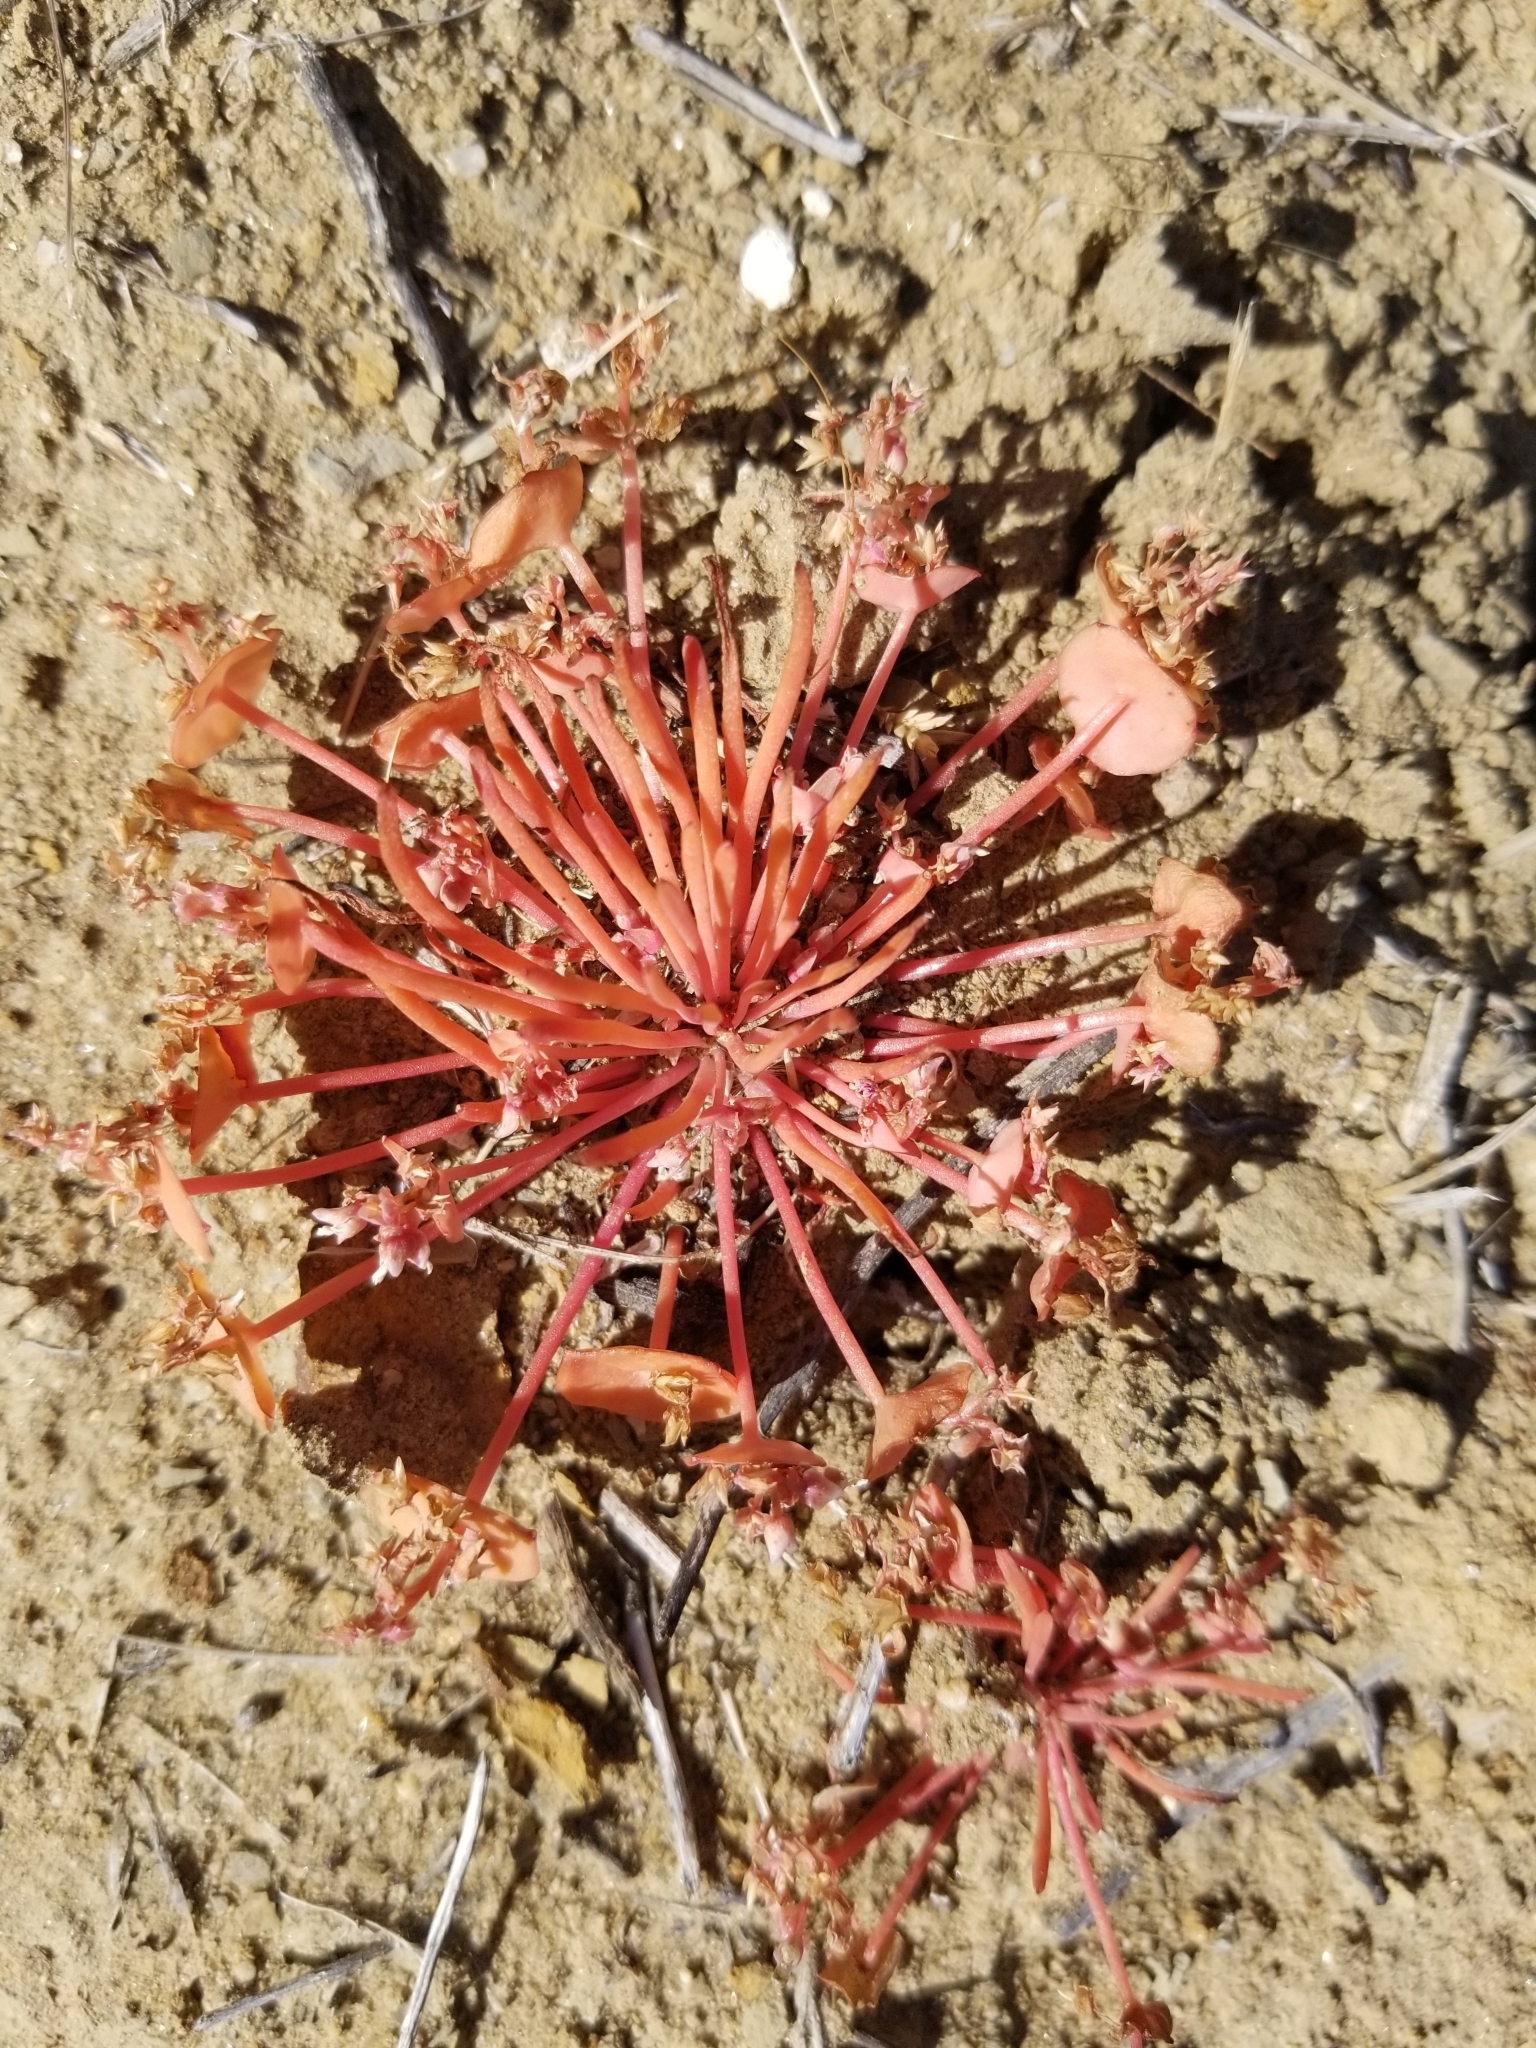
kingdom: Plantae
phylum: Tracheophyta
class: Magnoliopsida
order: Caryophyllales
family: Montiaceae
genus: Claytonia
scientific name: Claytonia parviflora
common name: Indian-lettuce
